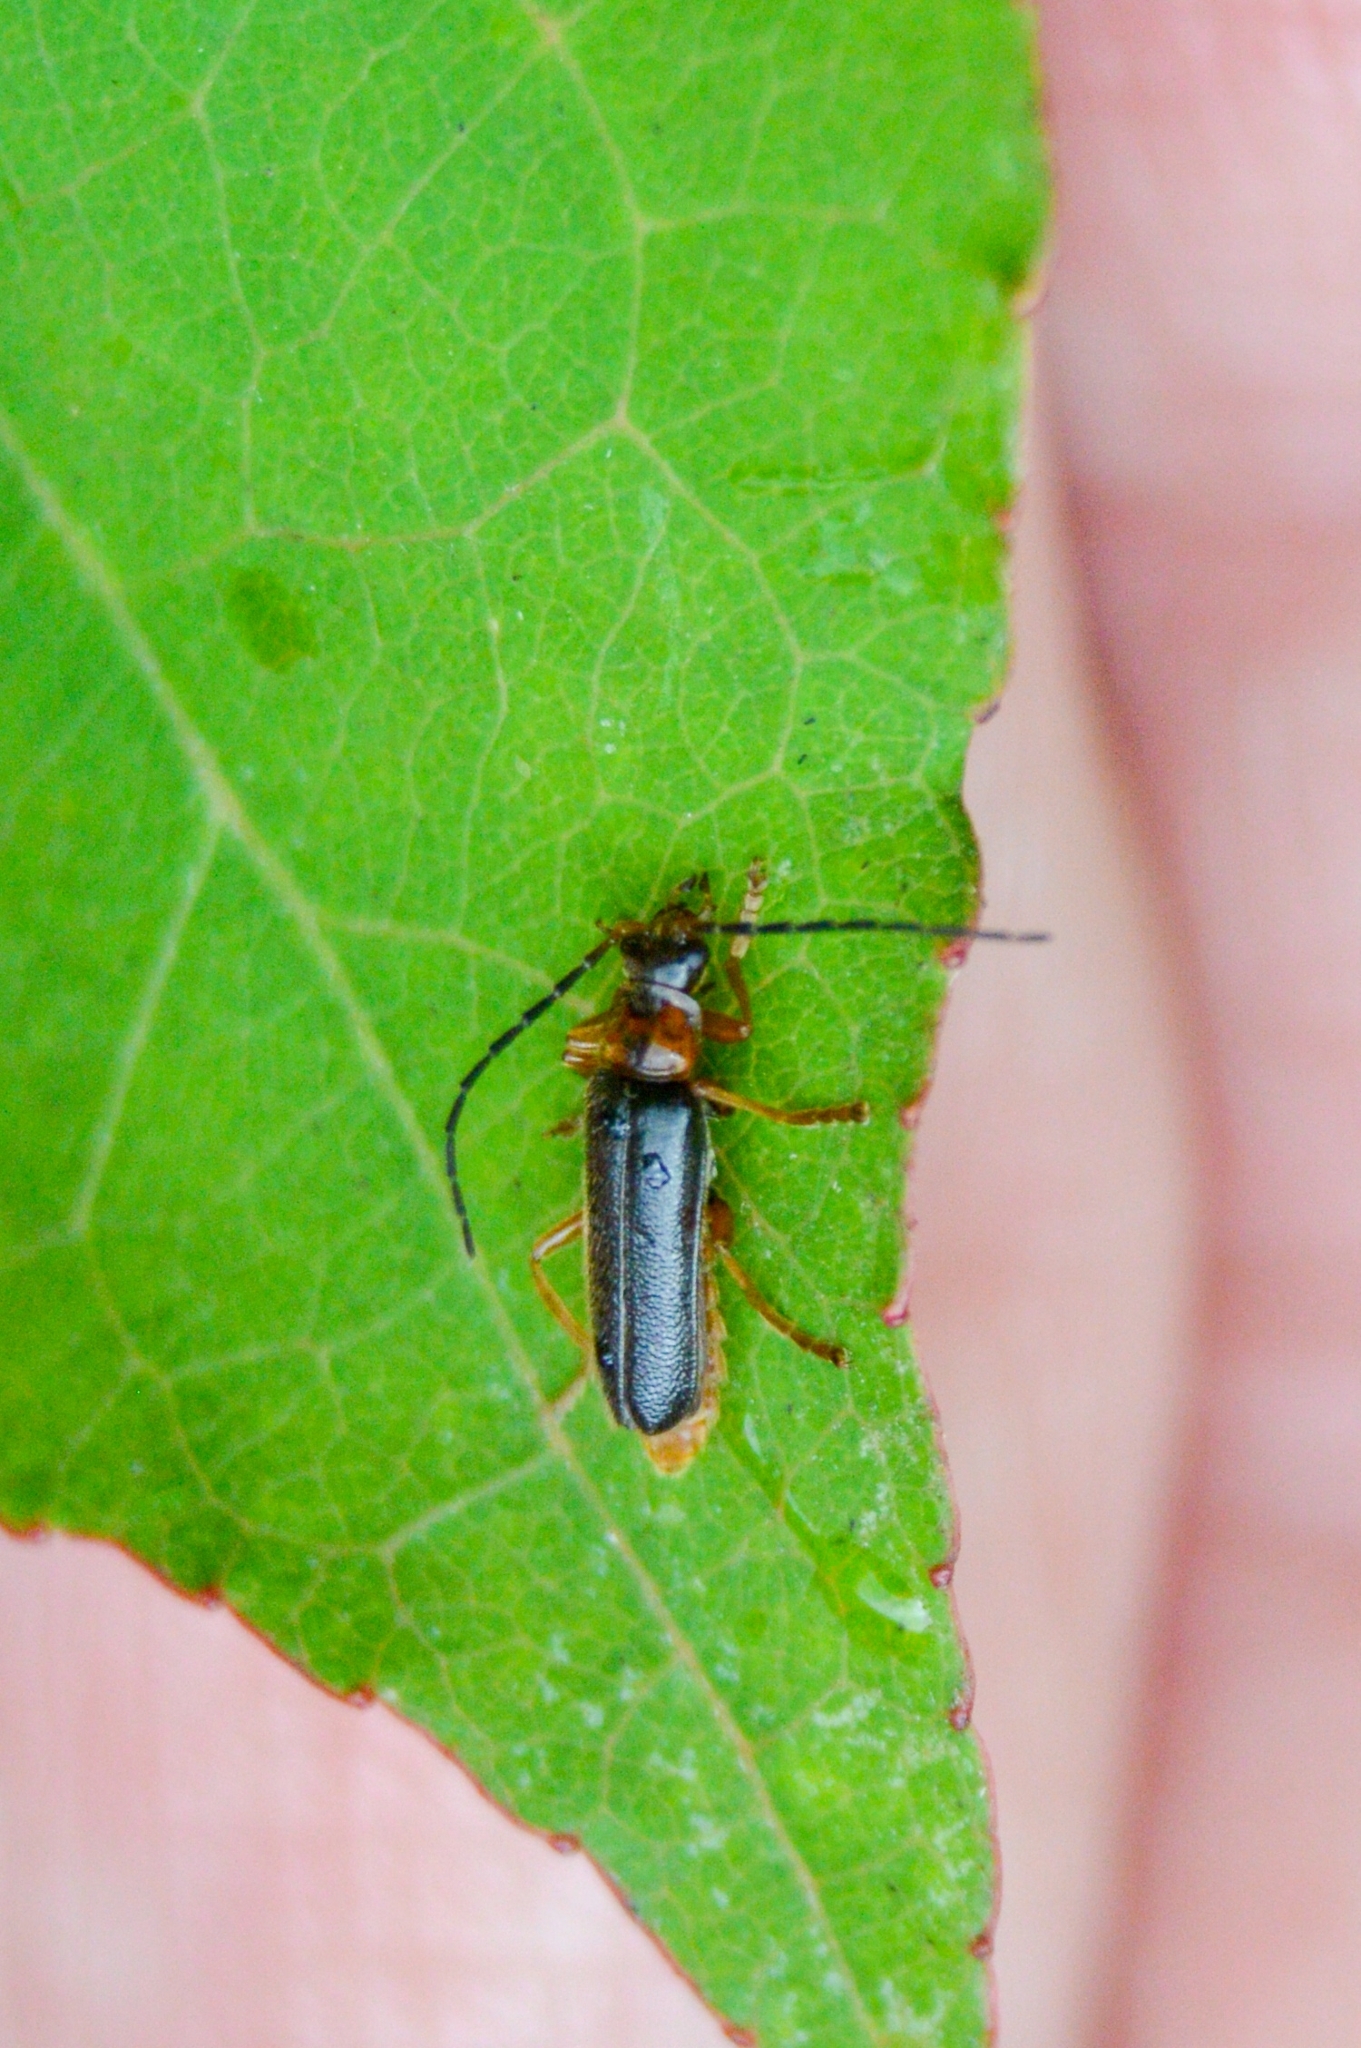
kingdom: Animalia
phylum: Arthropoda
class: Insecta
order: Coleoptera
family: Cantharidae
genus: Cantharis
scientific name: Cantharis flavilabris
